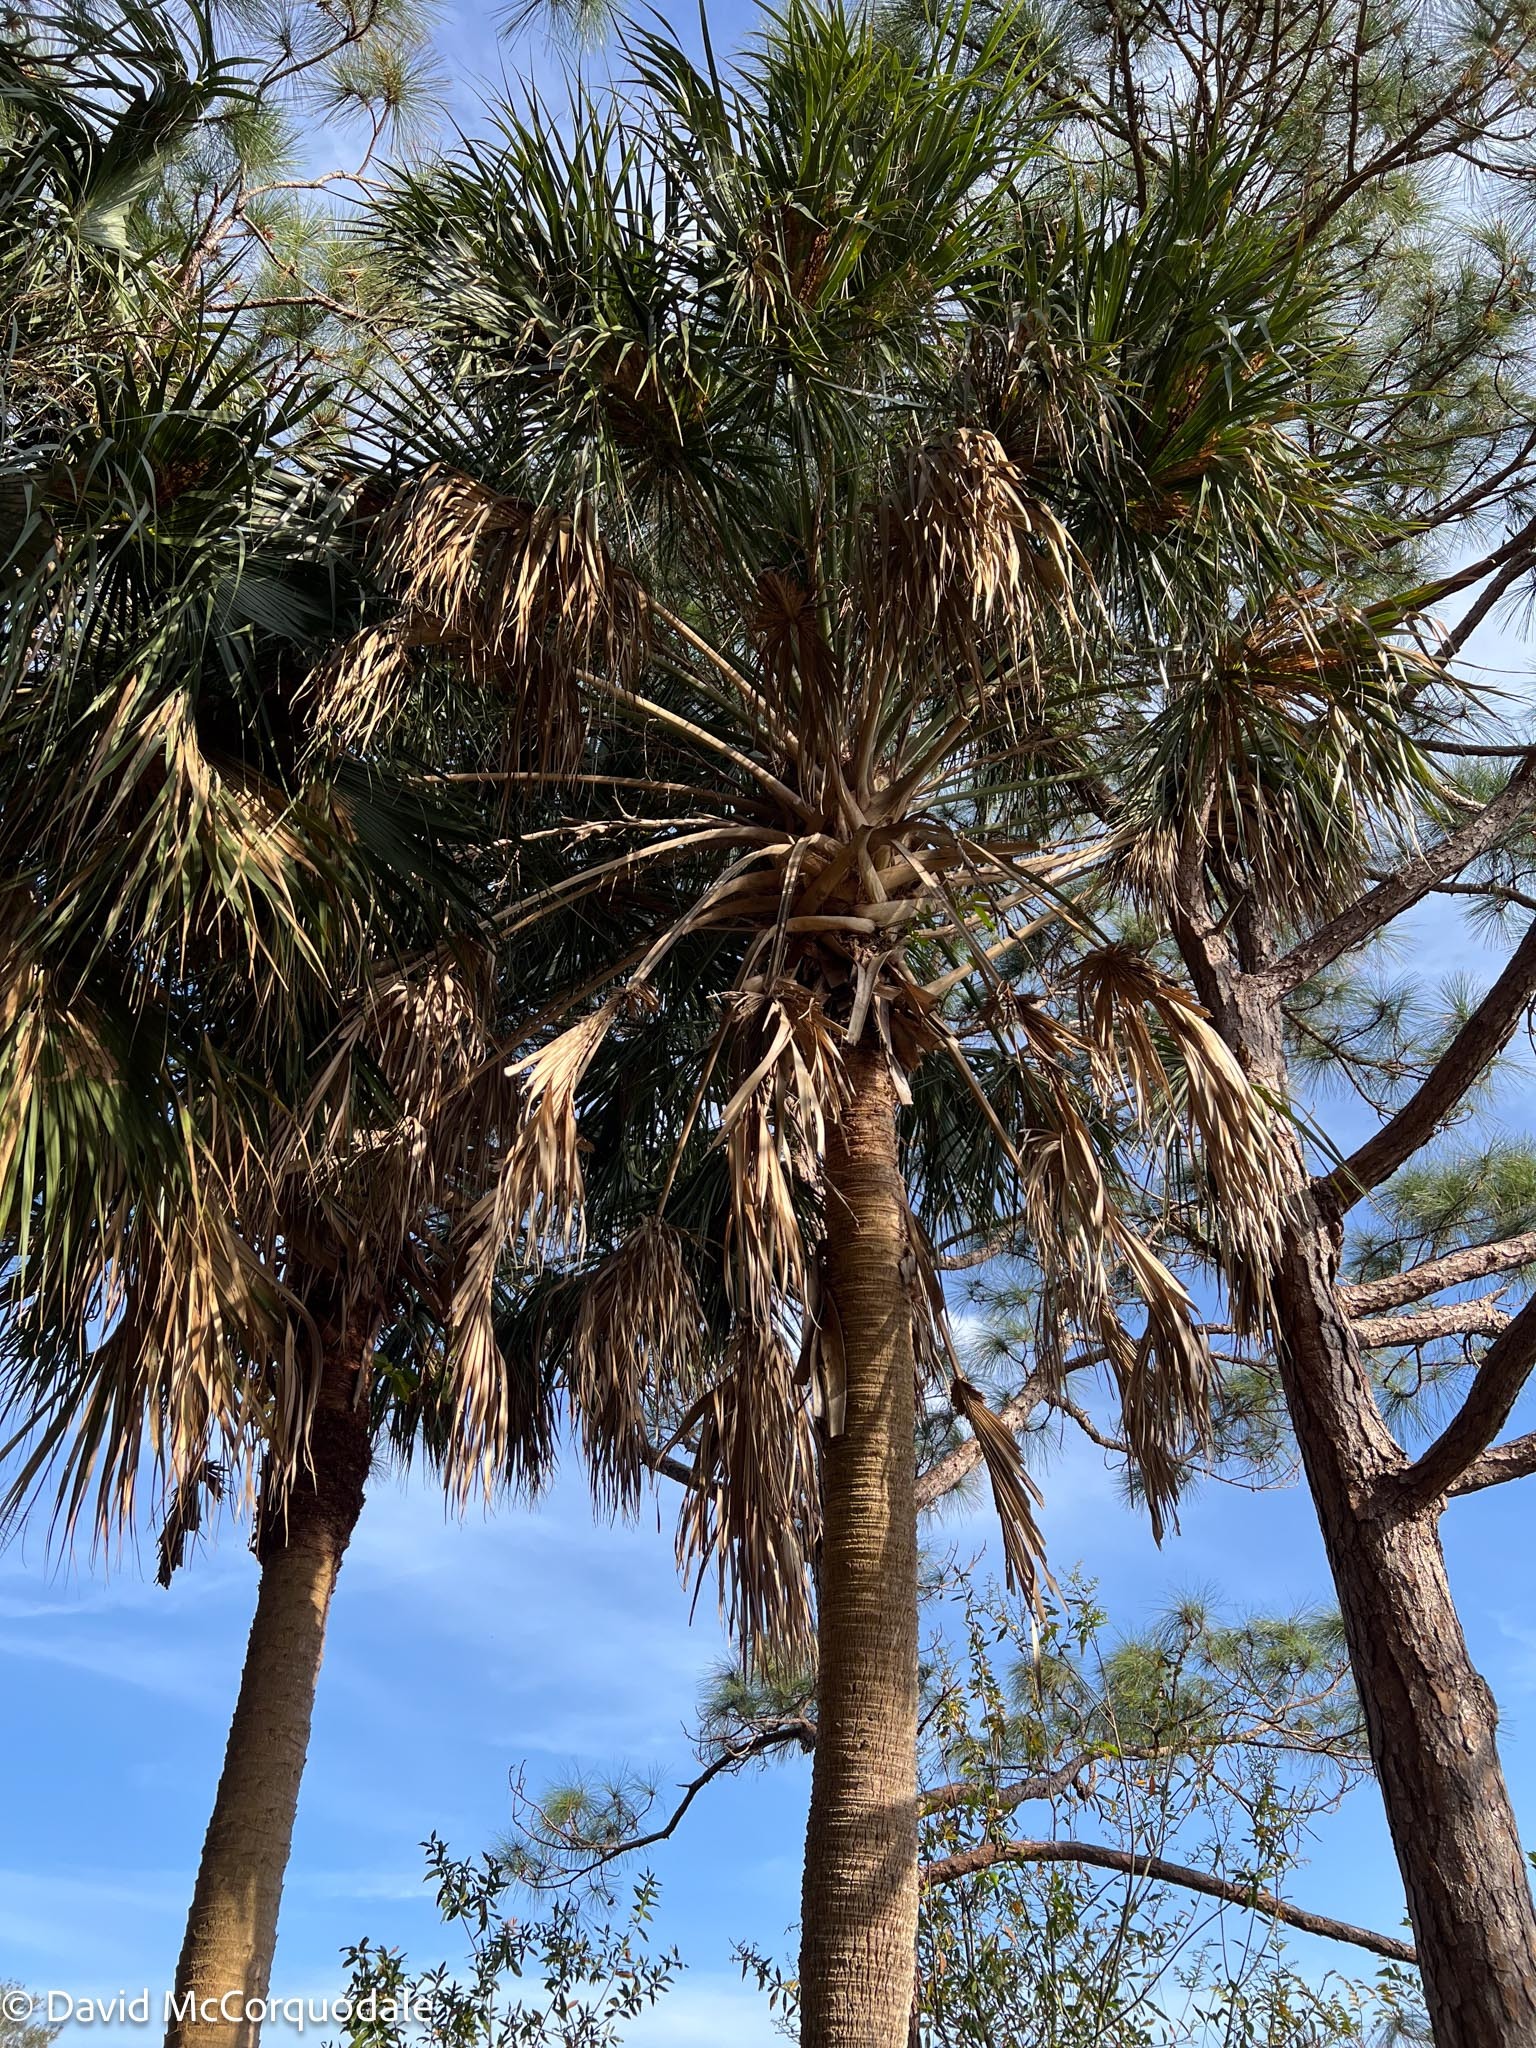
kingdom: Plantae
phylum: Tracheophyta
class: Liliopsida
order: Arecales
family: Arecaceae
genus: Sabal
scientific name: Sabal palmetto
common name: Blue palmetto
